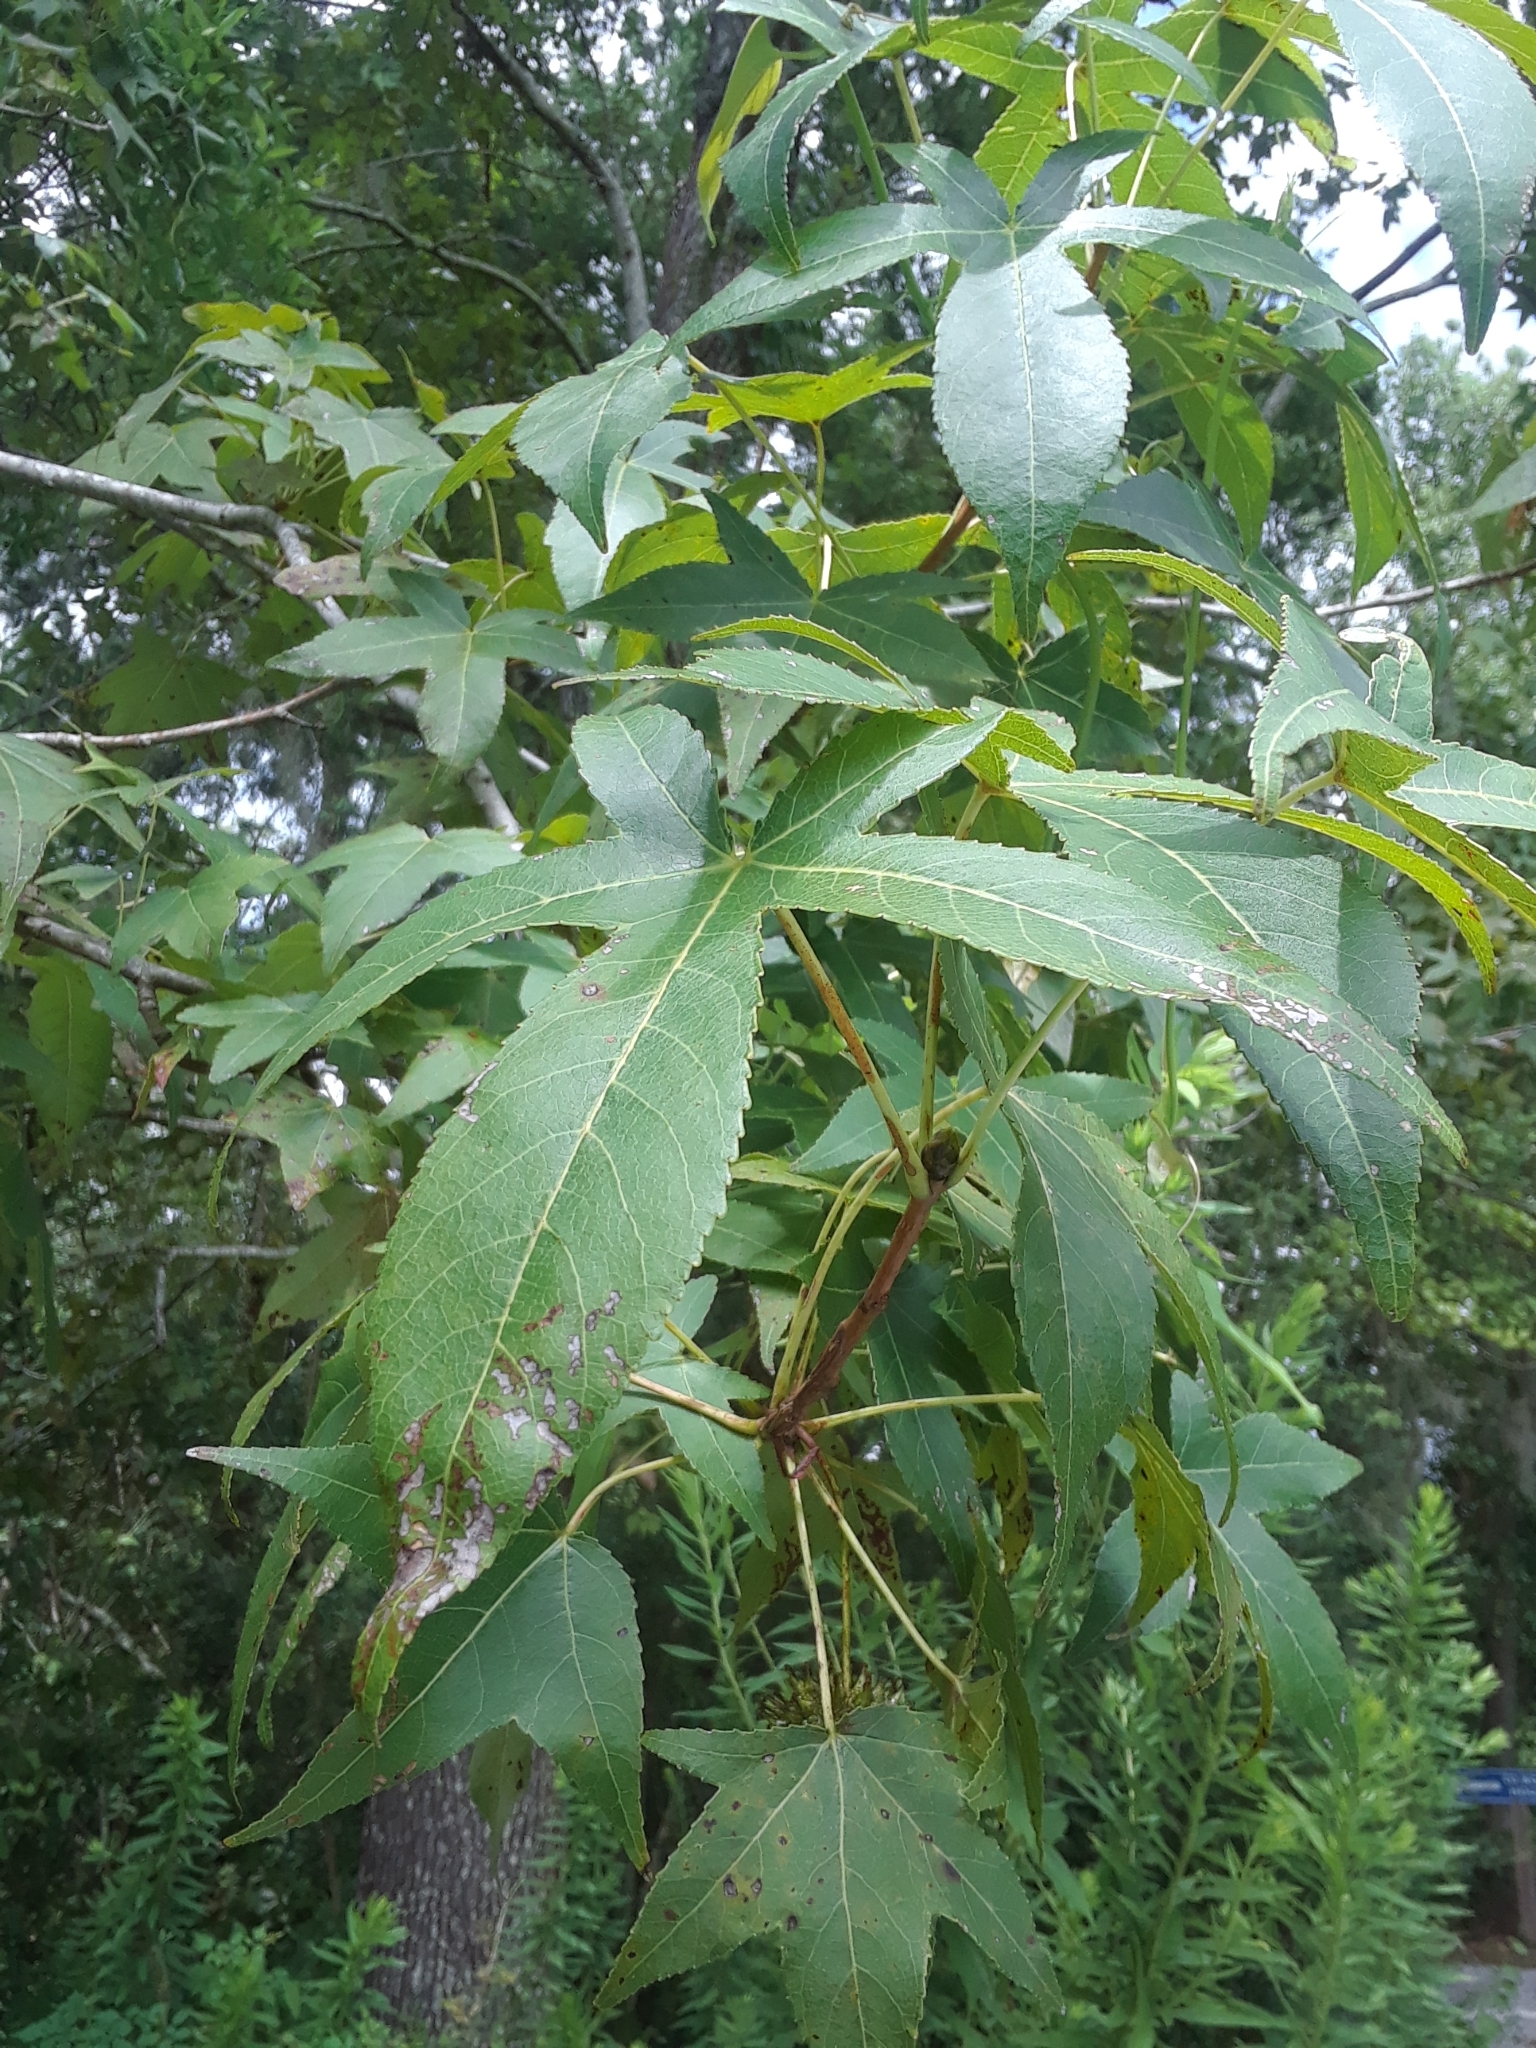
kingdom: Plantae
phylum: Tracheophyta
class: Magnoliopsida
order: Saxifragales
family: Altingiaceae
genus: Liquidambar
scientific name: Liquidambar styraciflua
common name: Sweet gum
